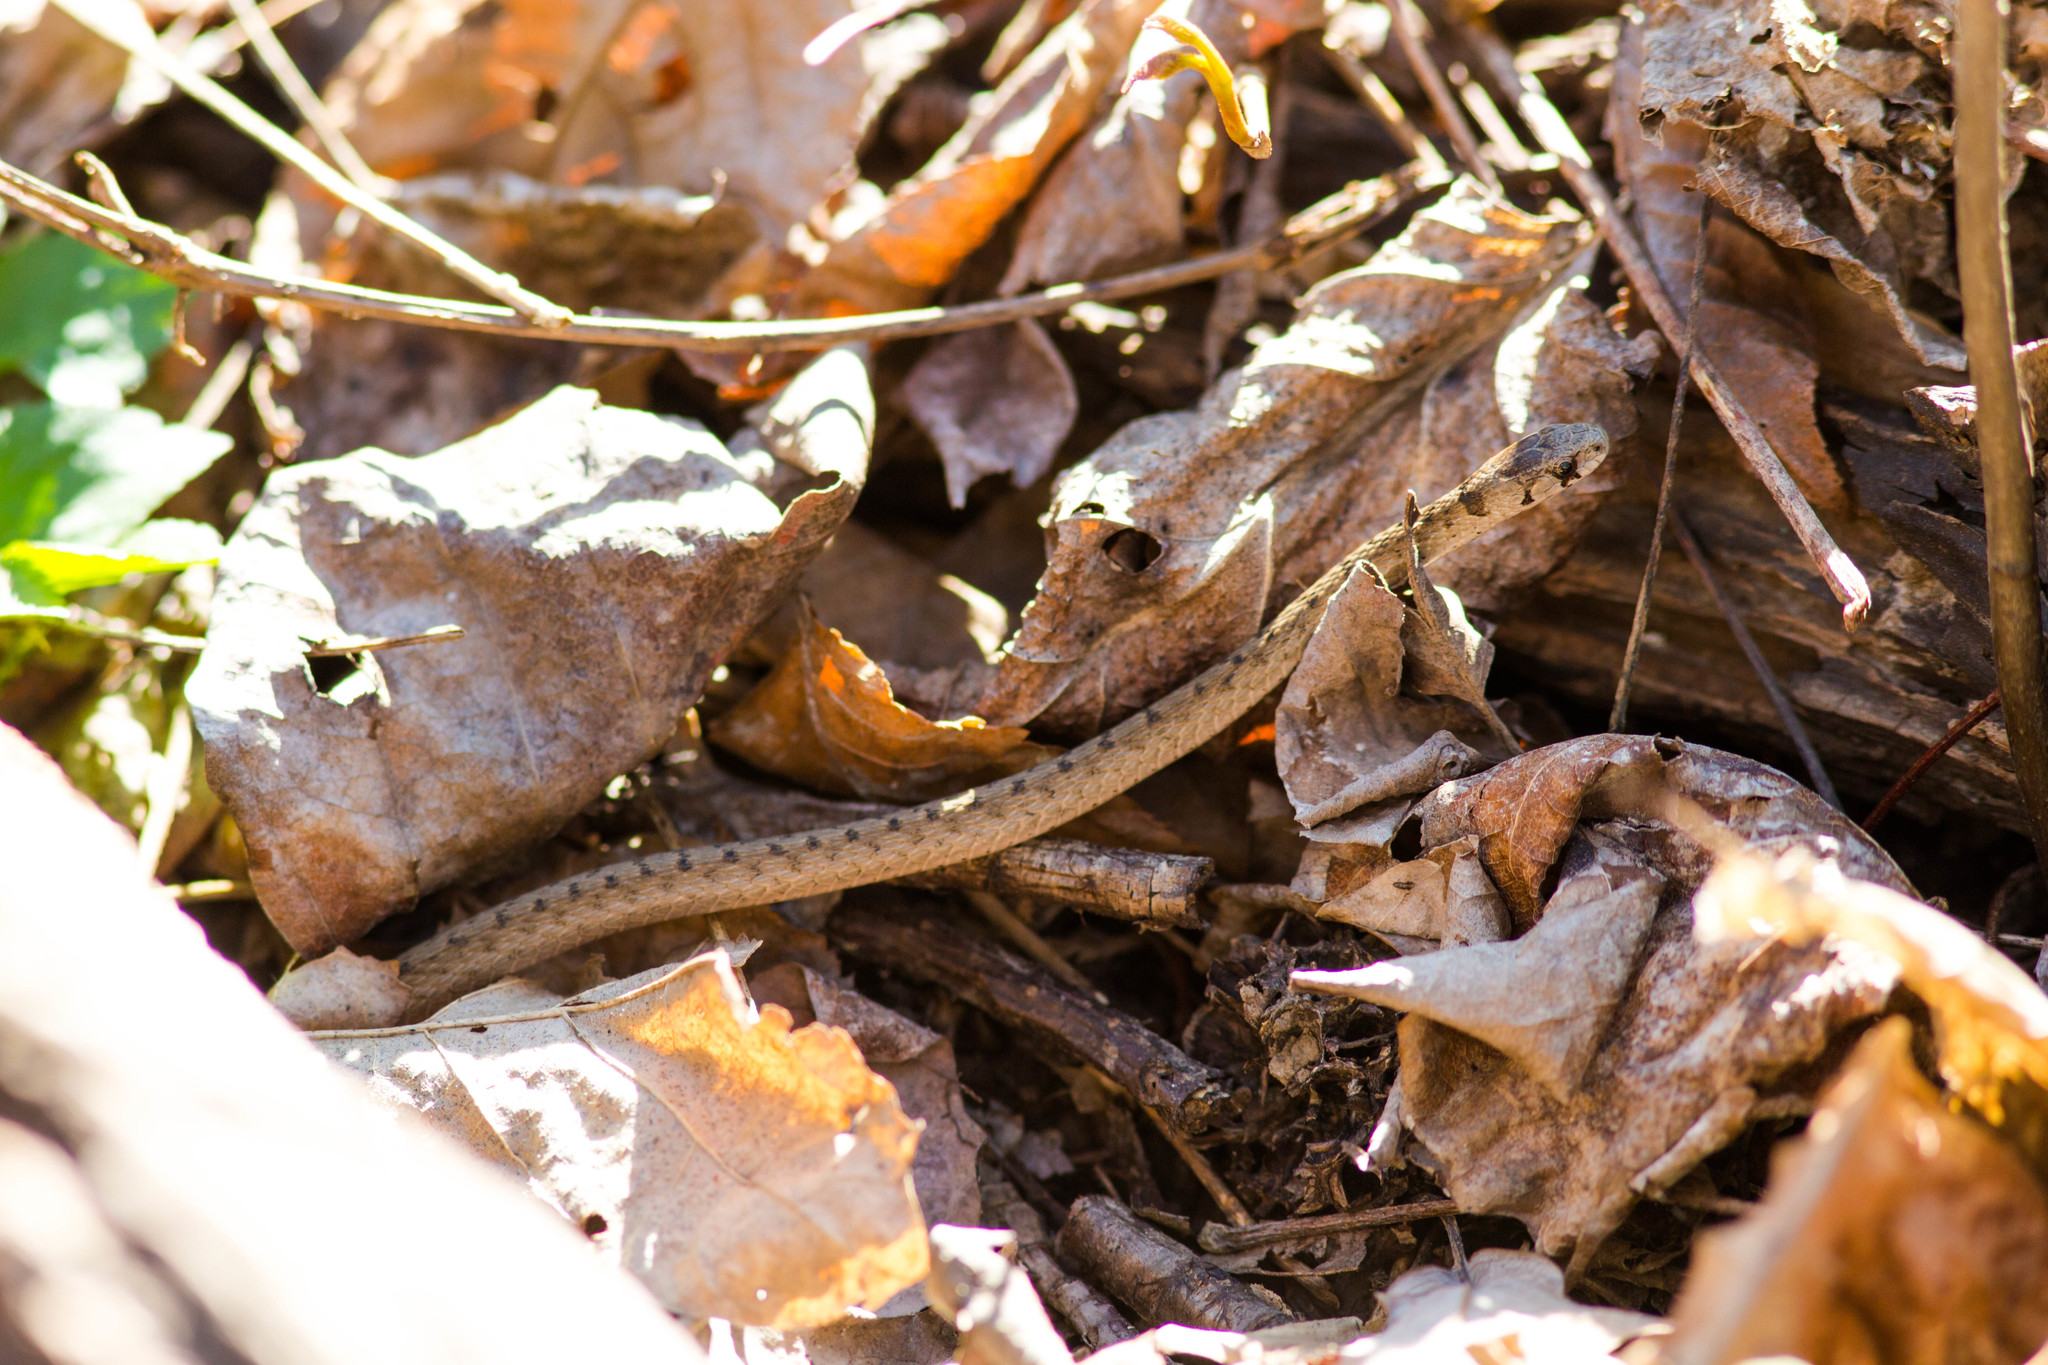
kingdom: Animalia
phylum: Chordata
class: Squamata
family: Colubridae
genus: Storeria
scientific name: Storeria dekayi
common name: (dekay’s) brown snake
